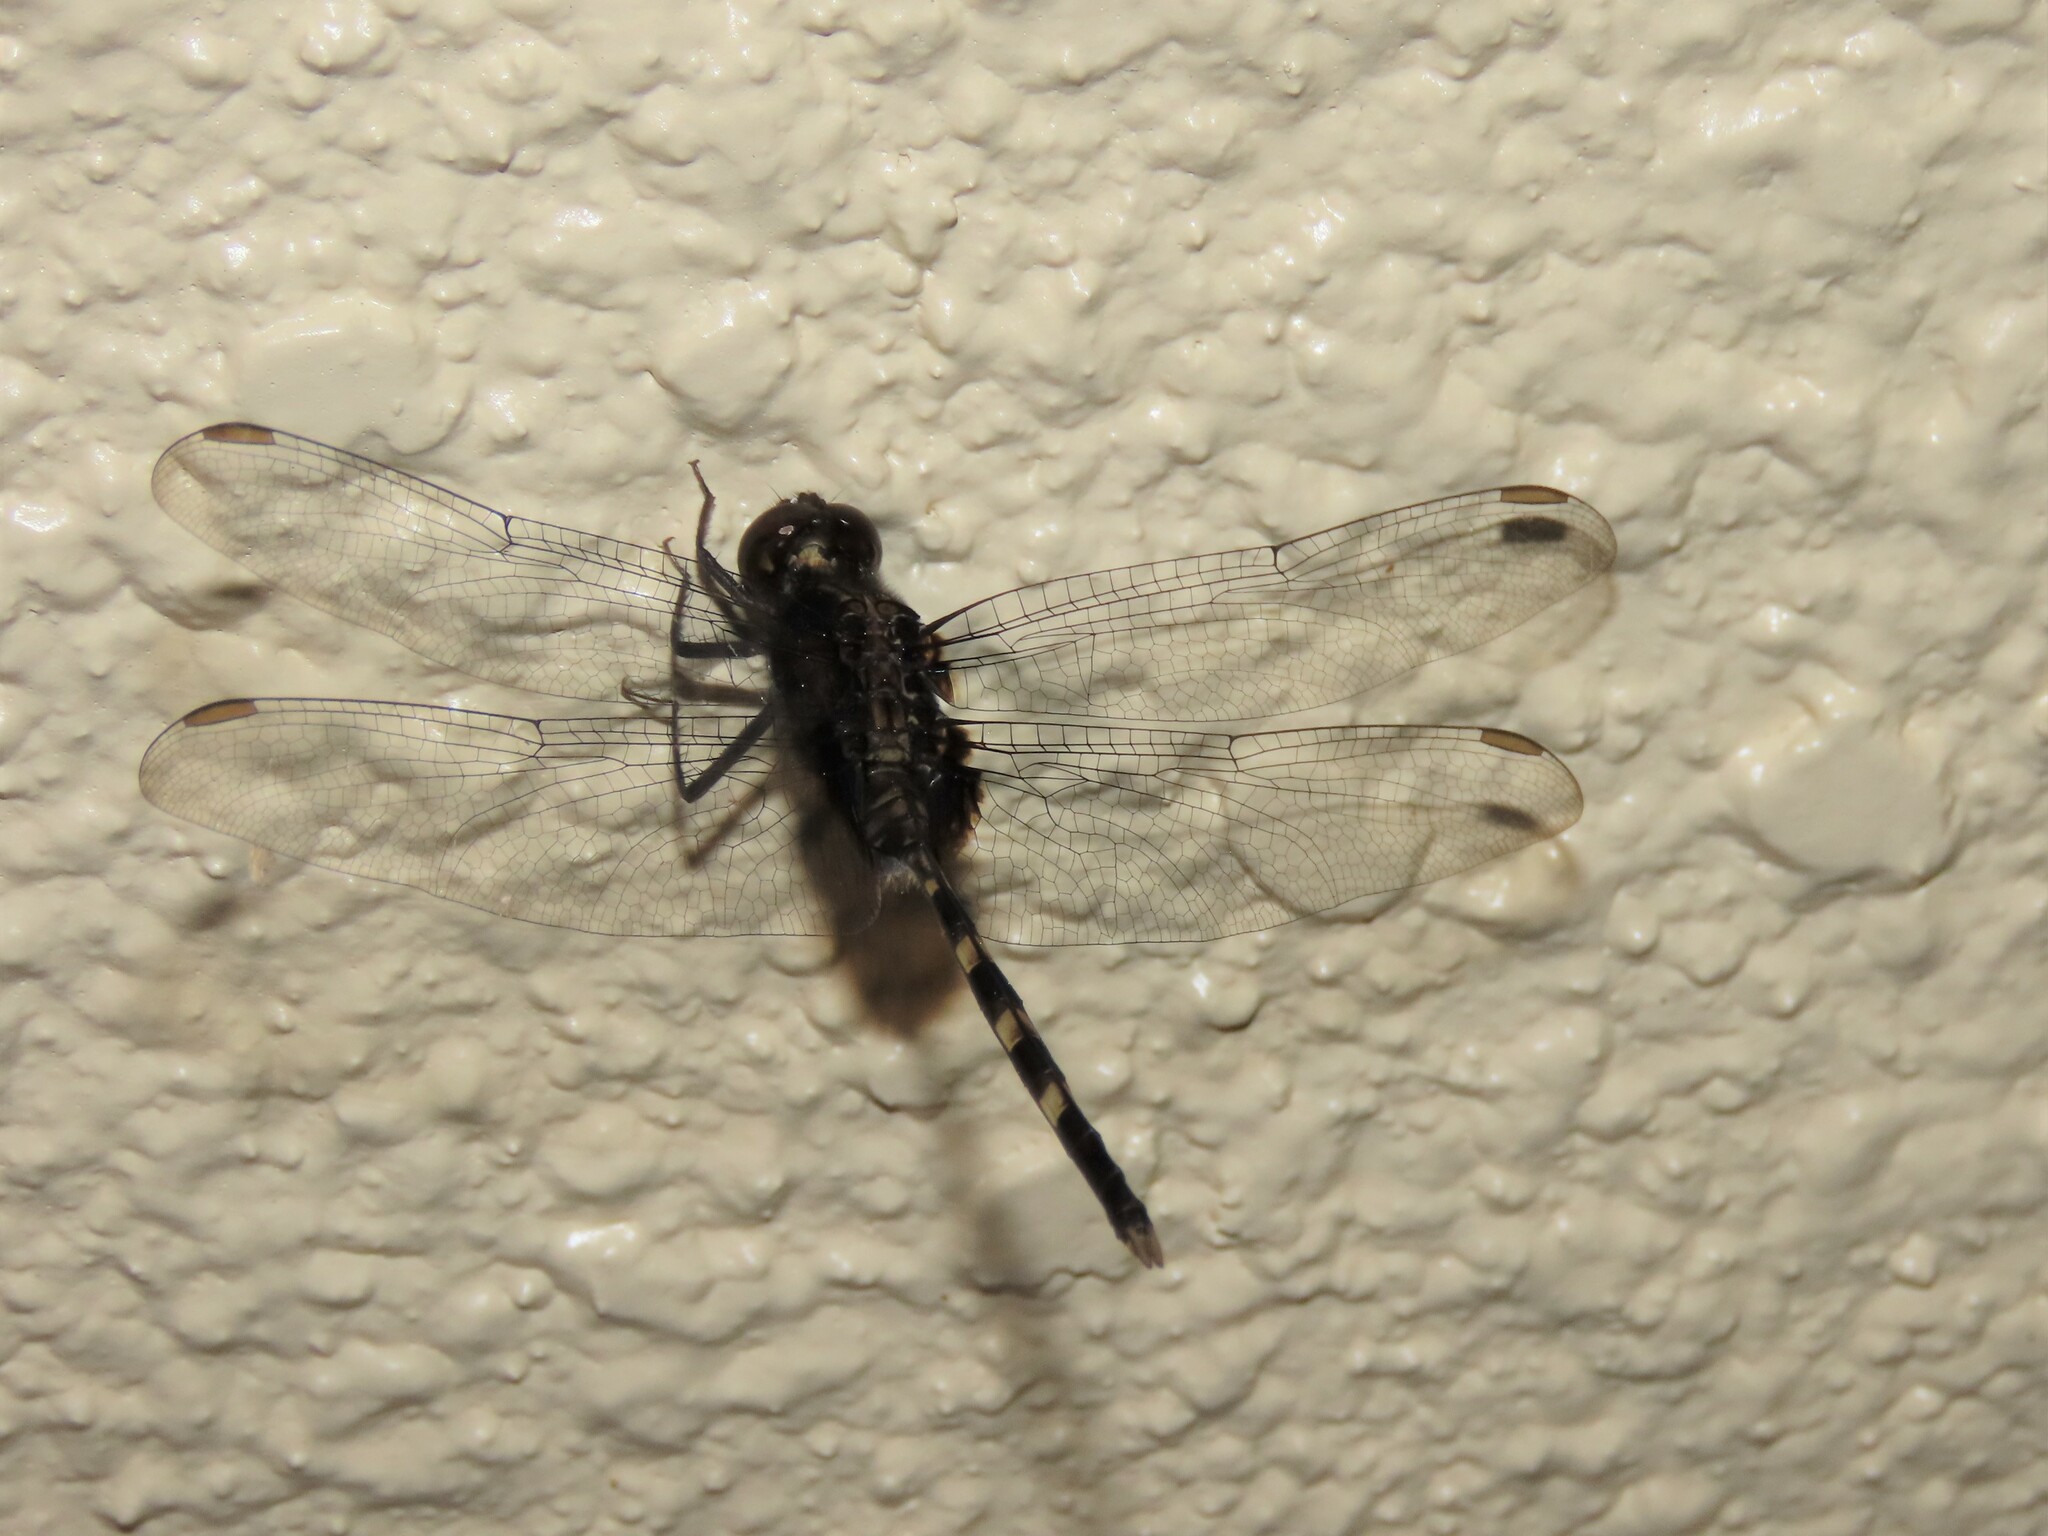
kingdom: Animalia
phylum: Arthropoda
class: Insecta
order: Odonata
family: Libellulidae
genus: Erythemis
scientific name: Erythemis plebeja
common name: Pin-tailed pondhawk
